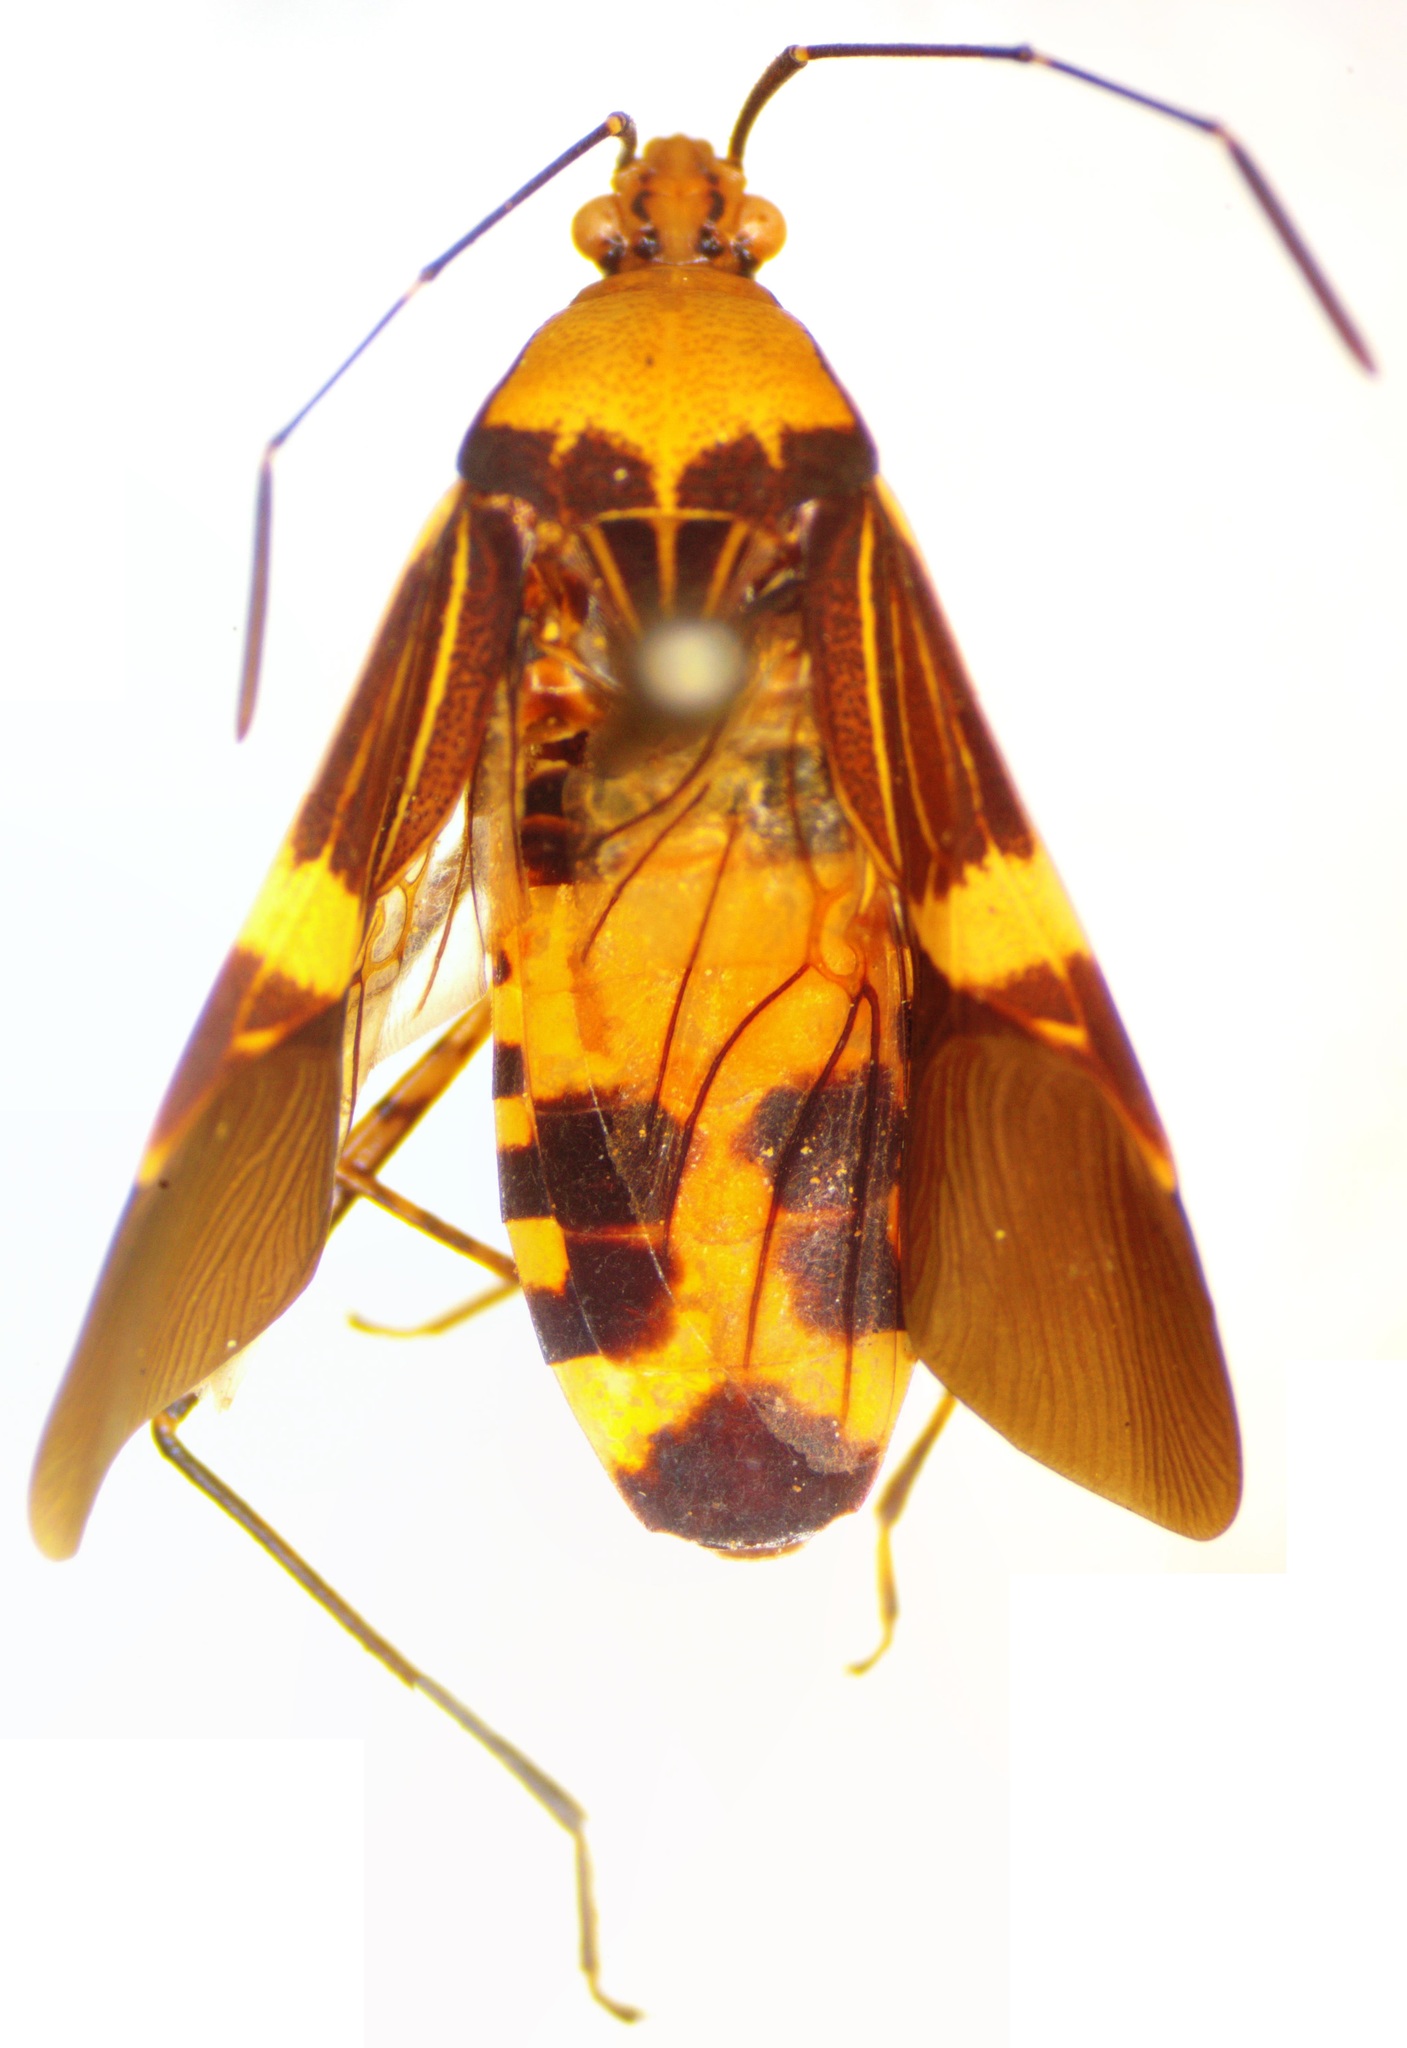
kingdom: Animalia
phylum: Arthropoda
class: Insecta
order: Hemiptera
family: Coreidae
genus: Hypselonotus
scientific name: Hypselonotus lineatus
